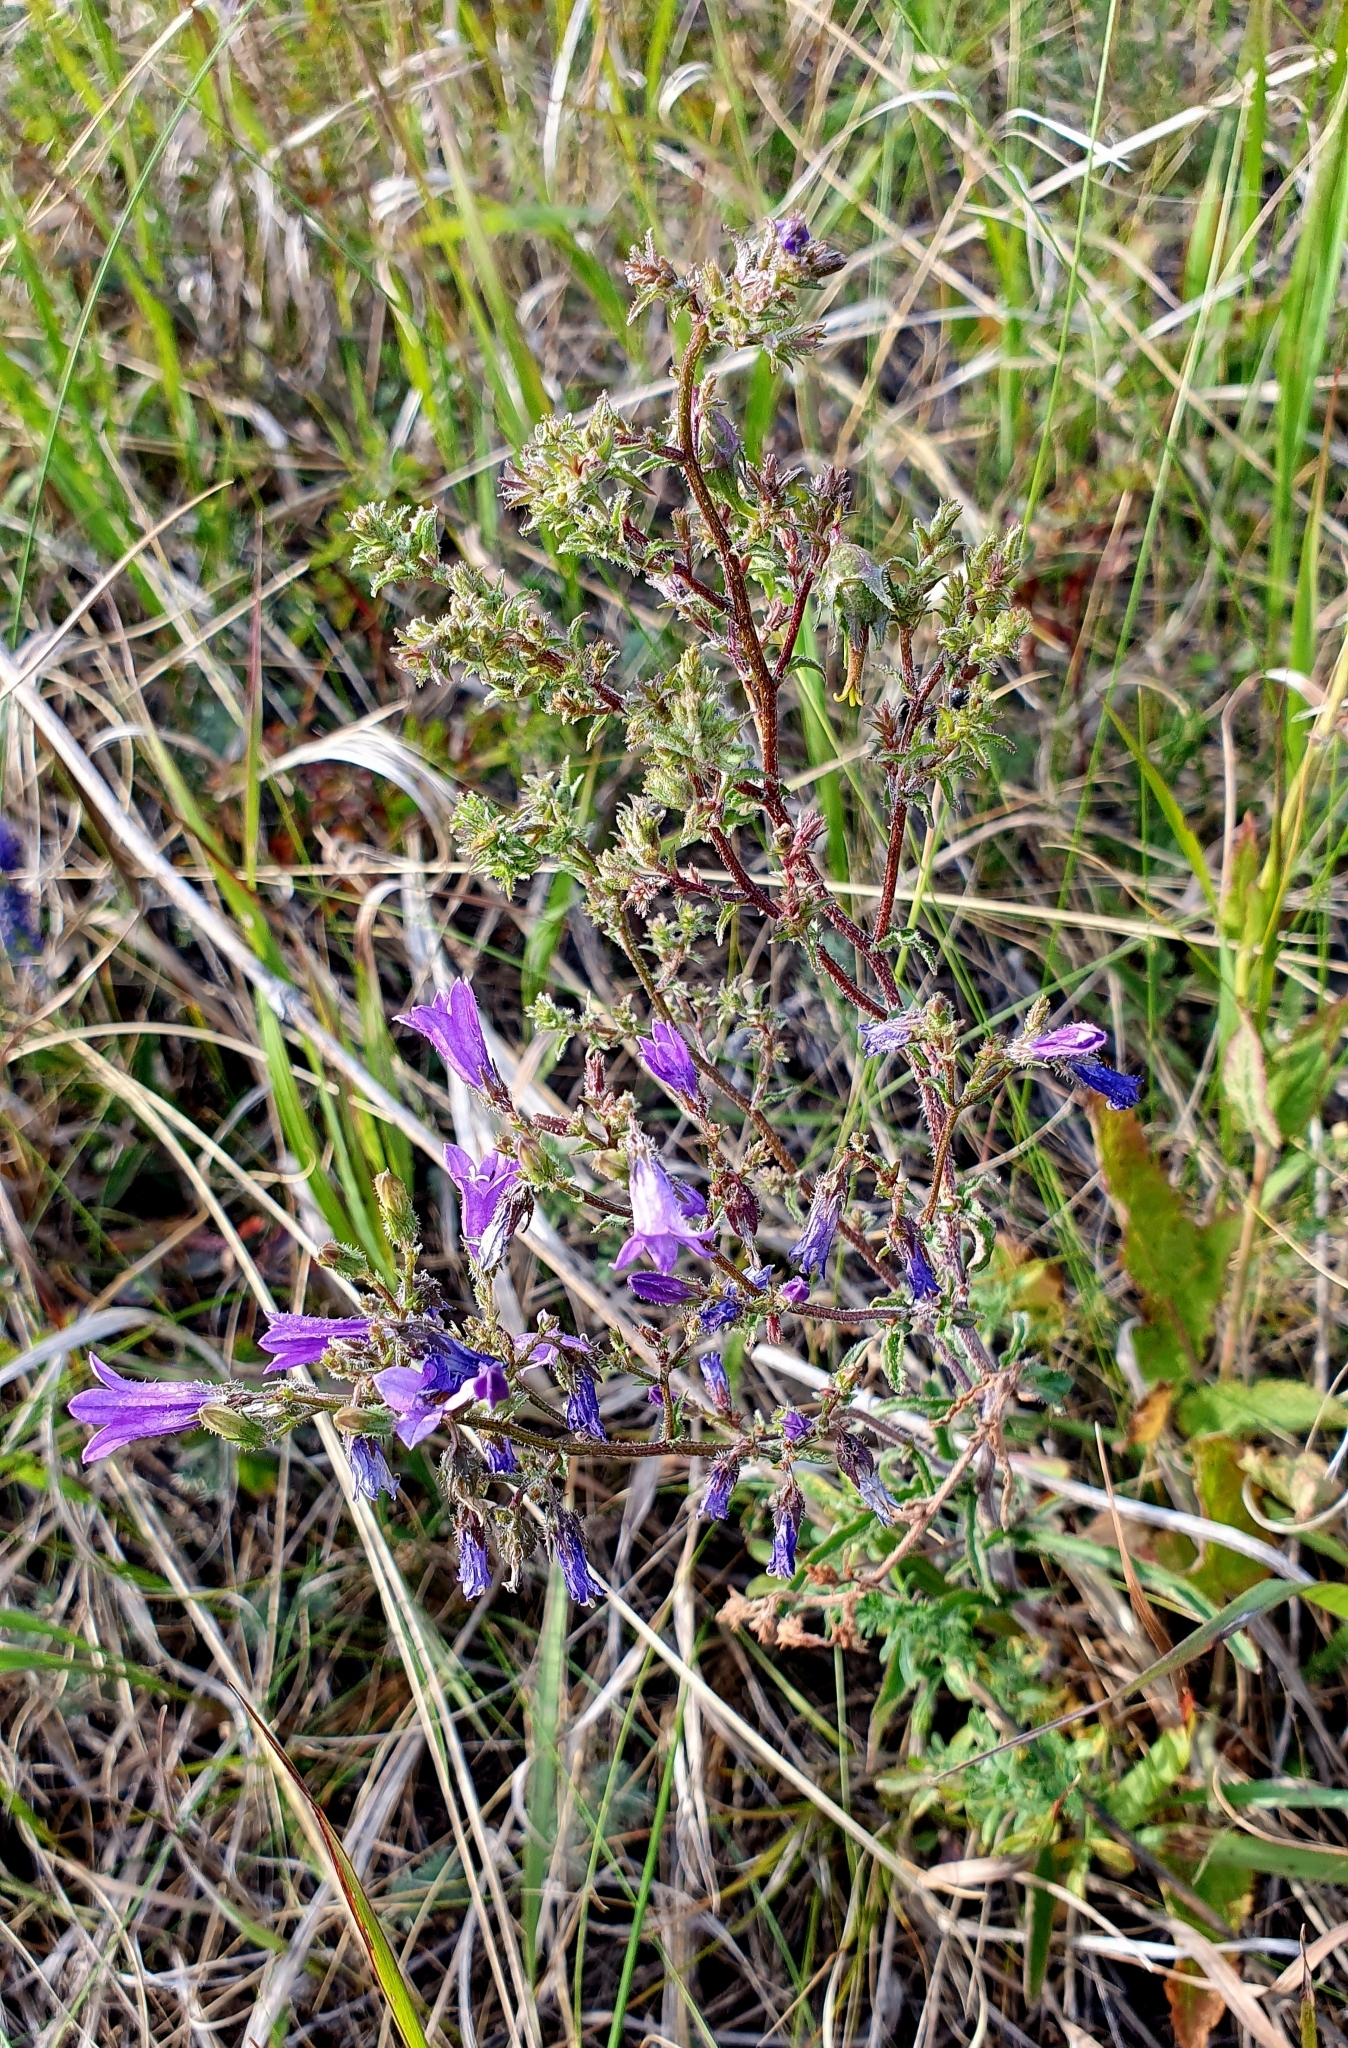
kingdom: Plantae
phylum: Tracheophyta
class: Magnoliopsida
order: Asterales
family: Campanulaceae
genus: Campanula
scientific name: Campanula sibirica
